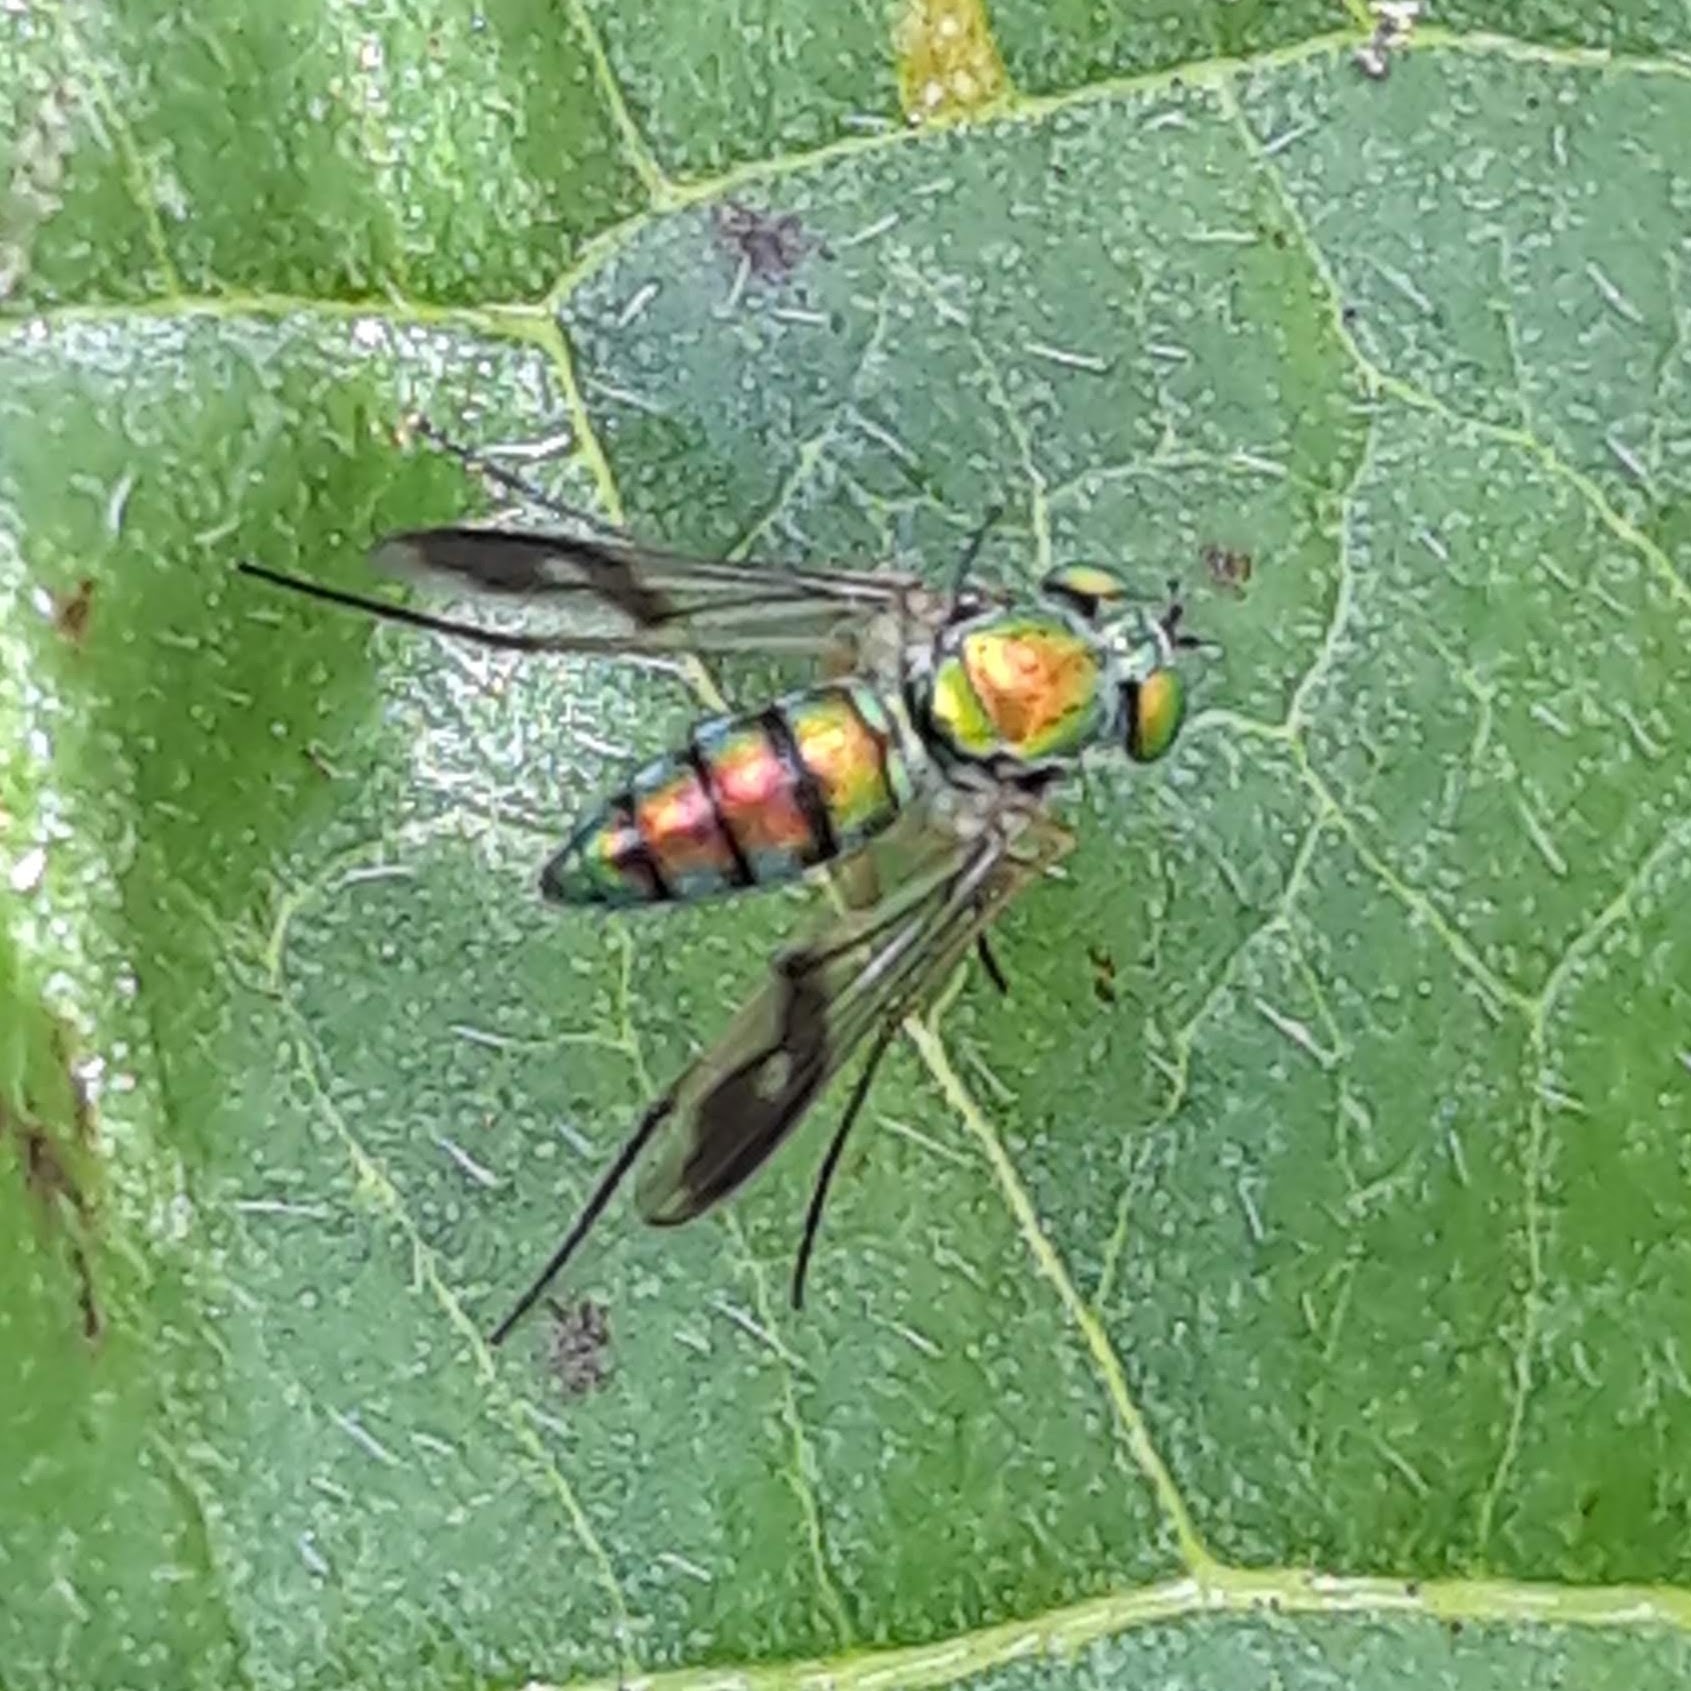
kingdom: Animalia
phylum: Arthropoda
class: Insecta
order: Diptera
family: Dolichopodidae
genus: Condylostylus
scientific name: Condylostylus
